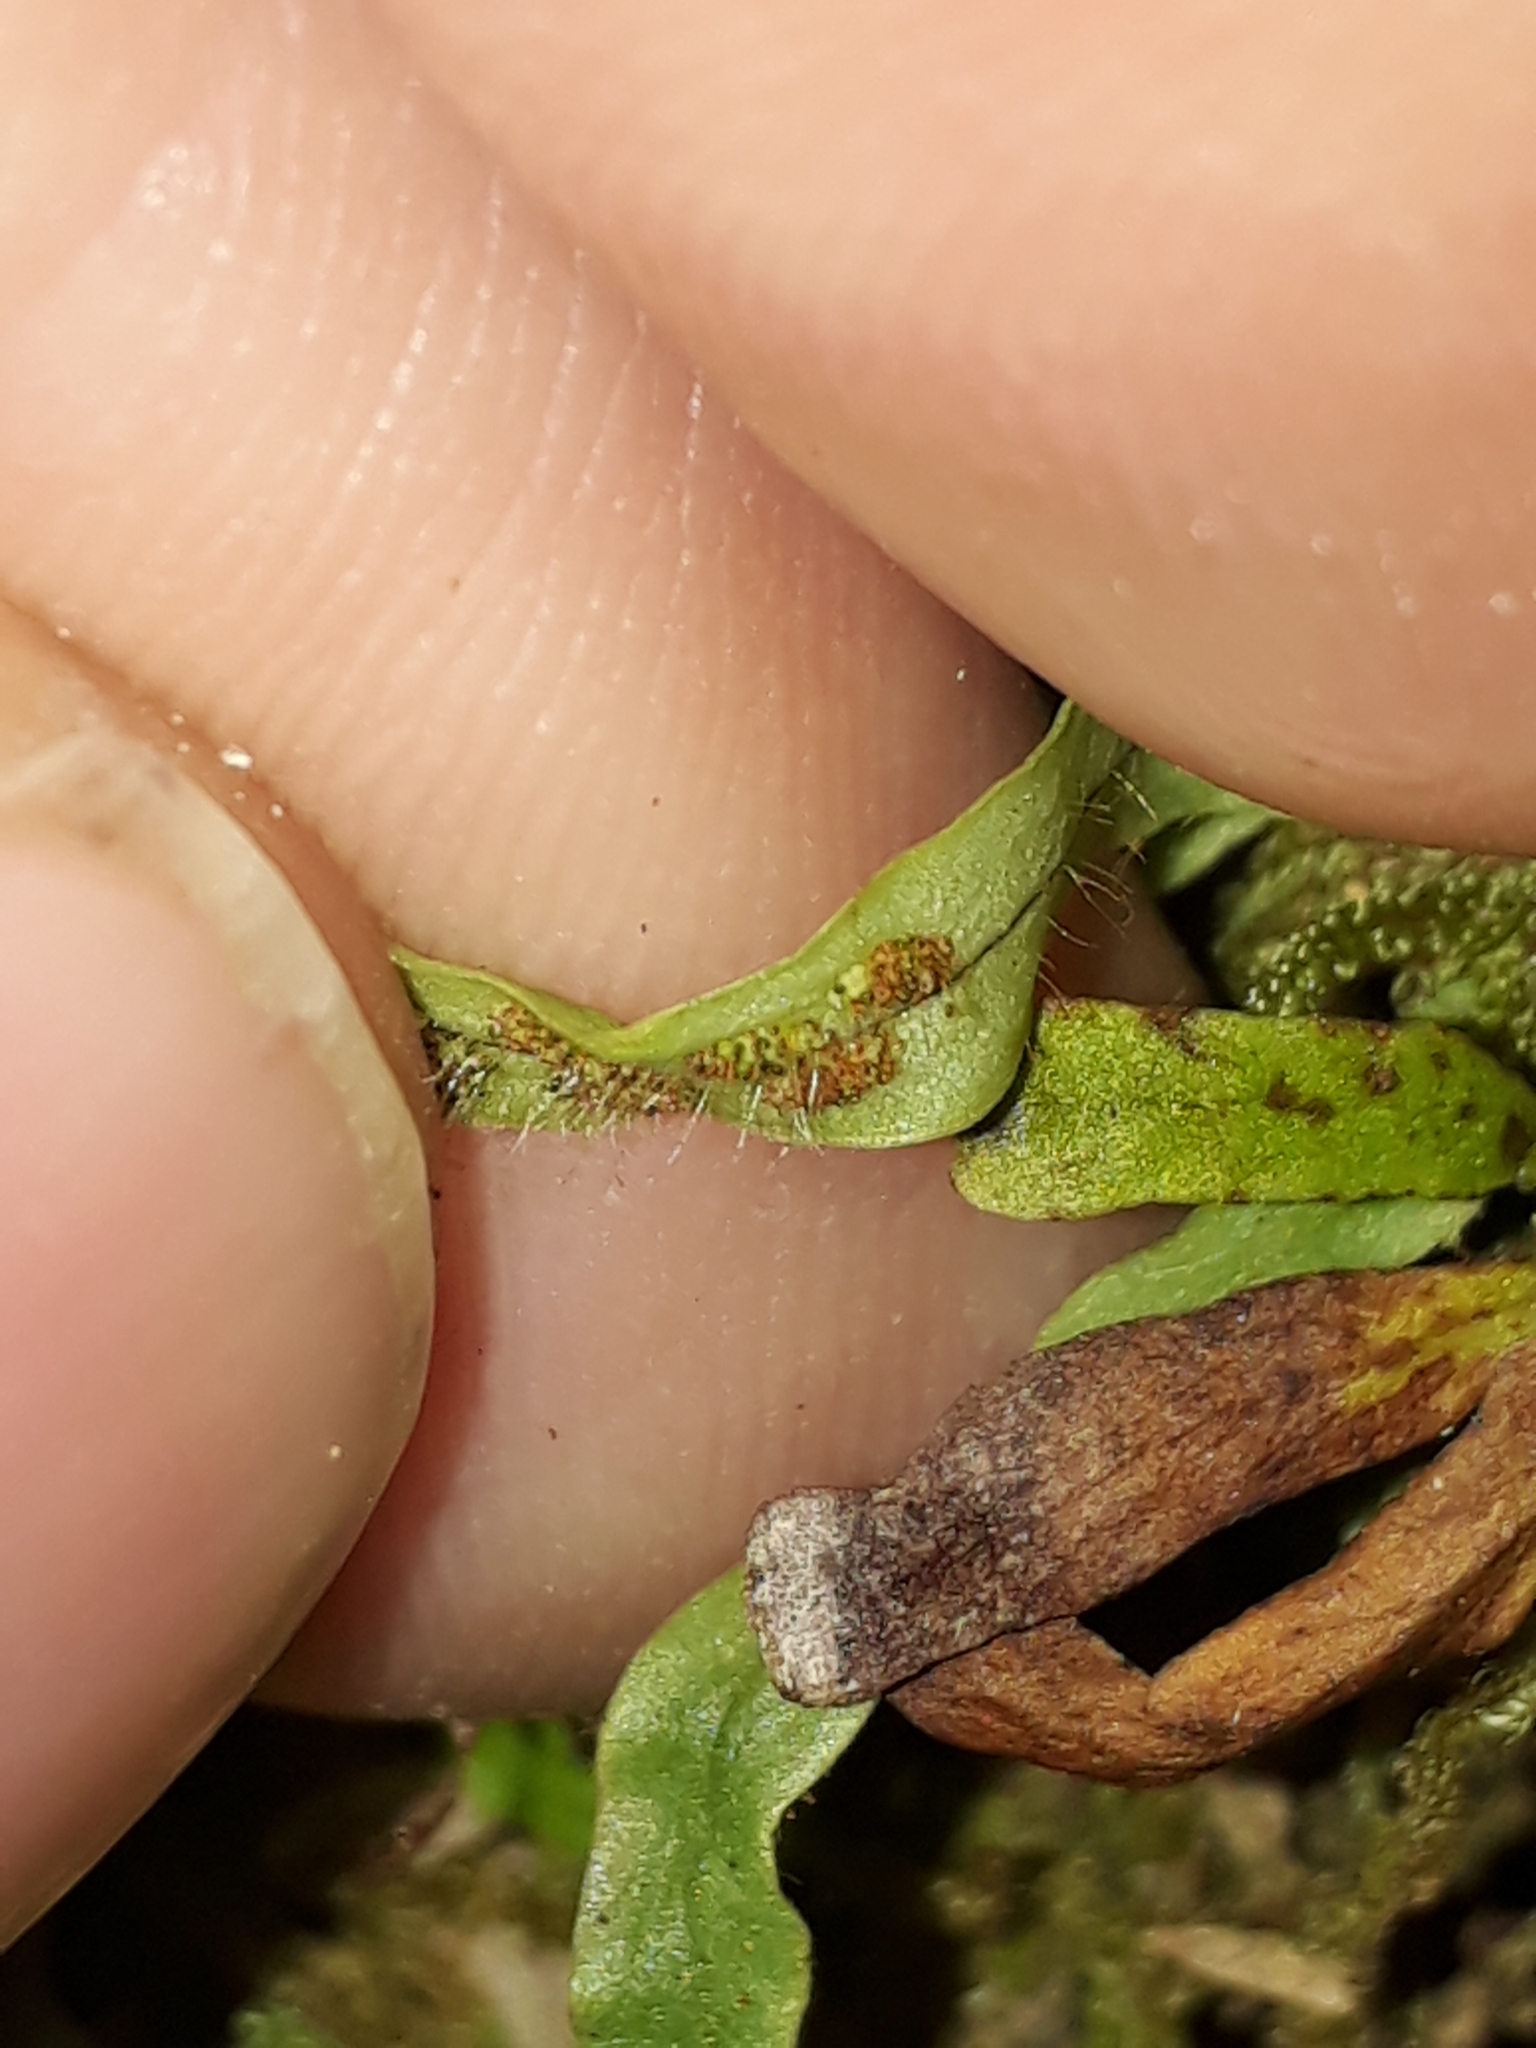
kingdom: Plantae
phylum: Tracheophyta
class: Polypodiopsida
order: Polypodiales
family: Polypodiaceae
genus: Notogrammitis
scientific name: Notogrammitis ciliata
